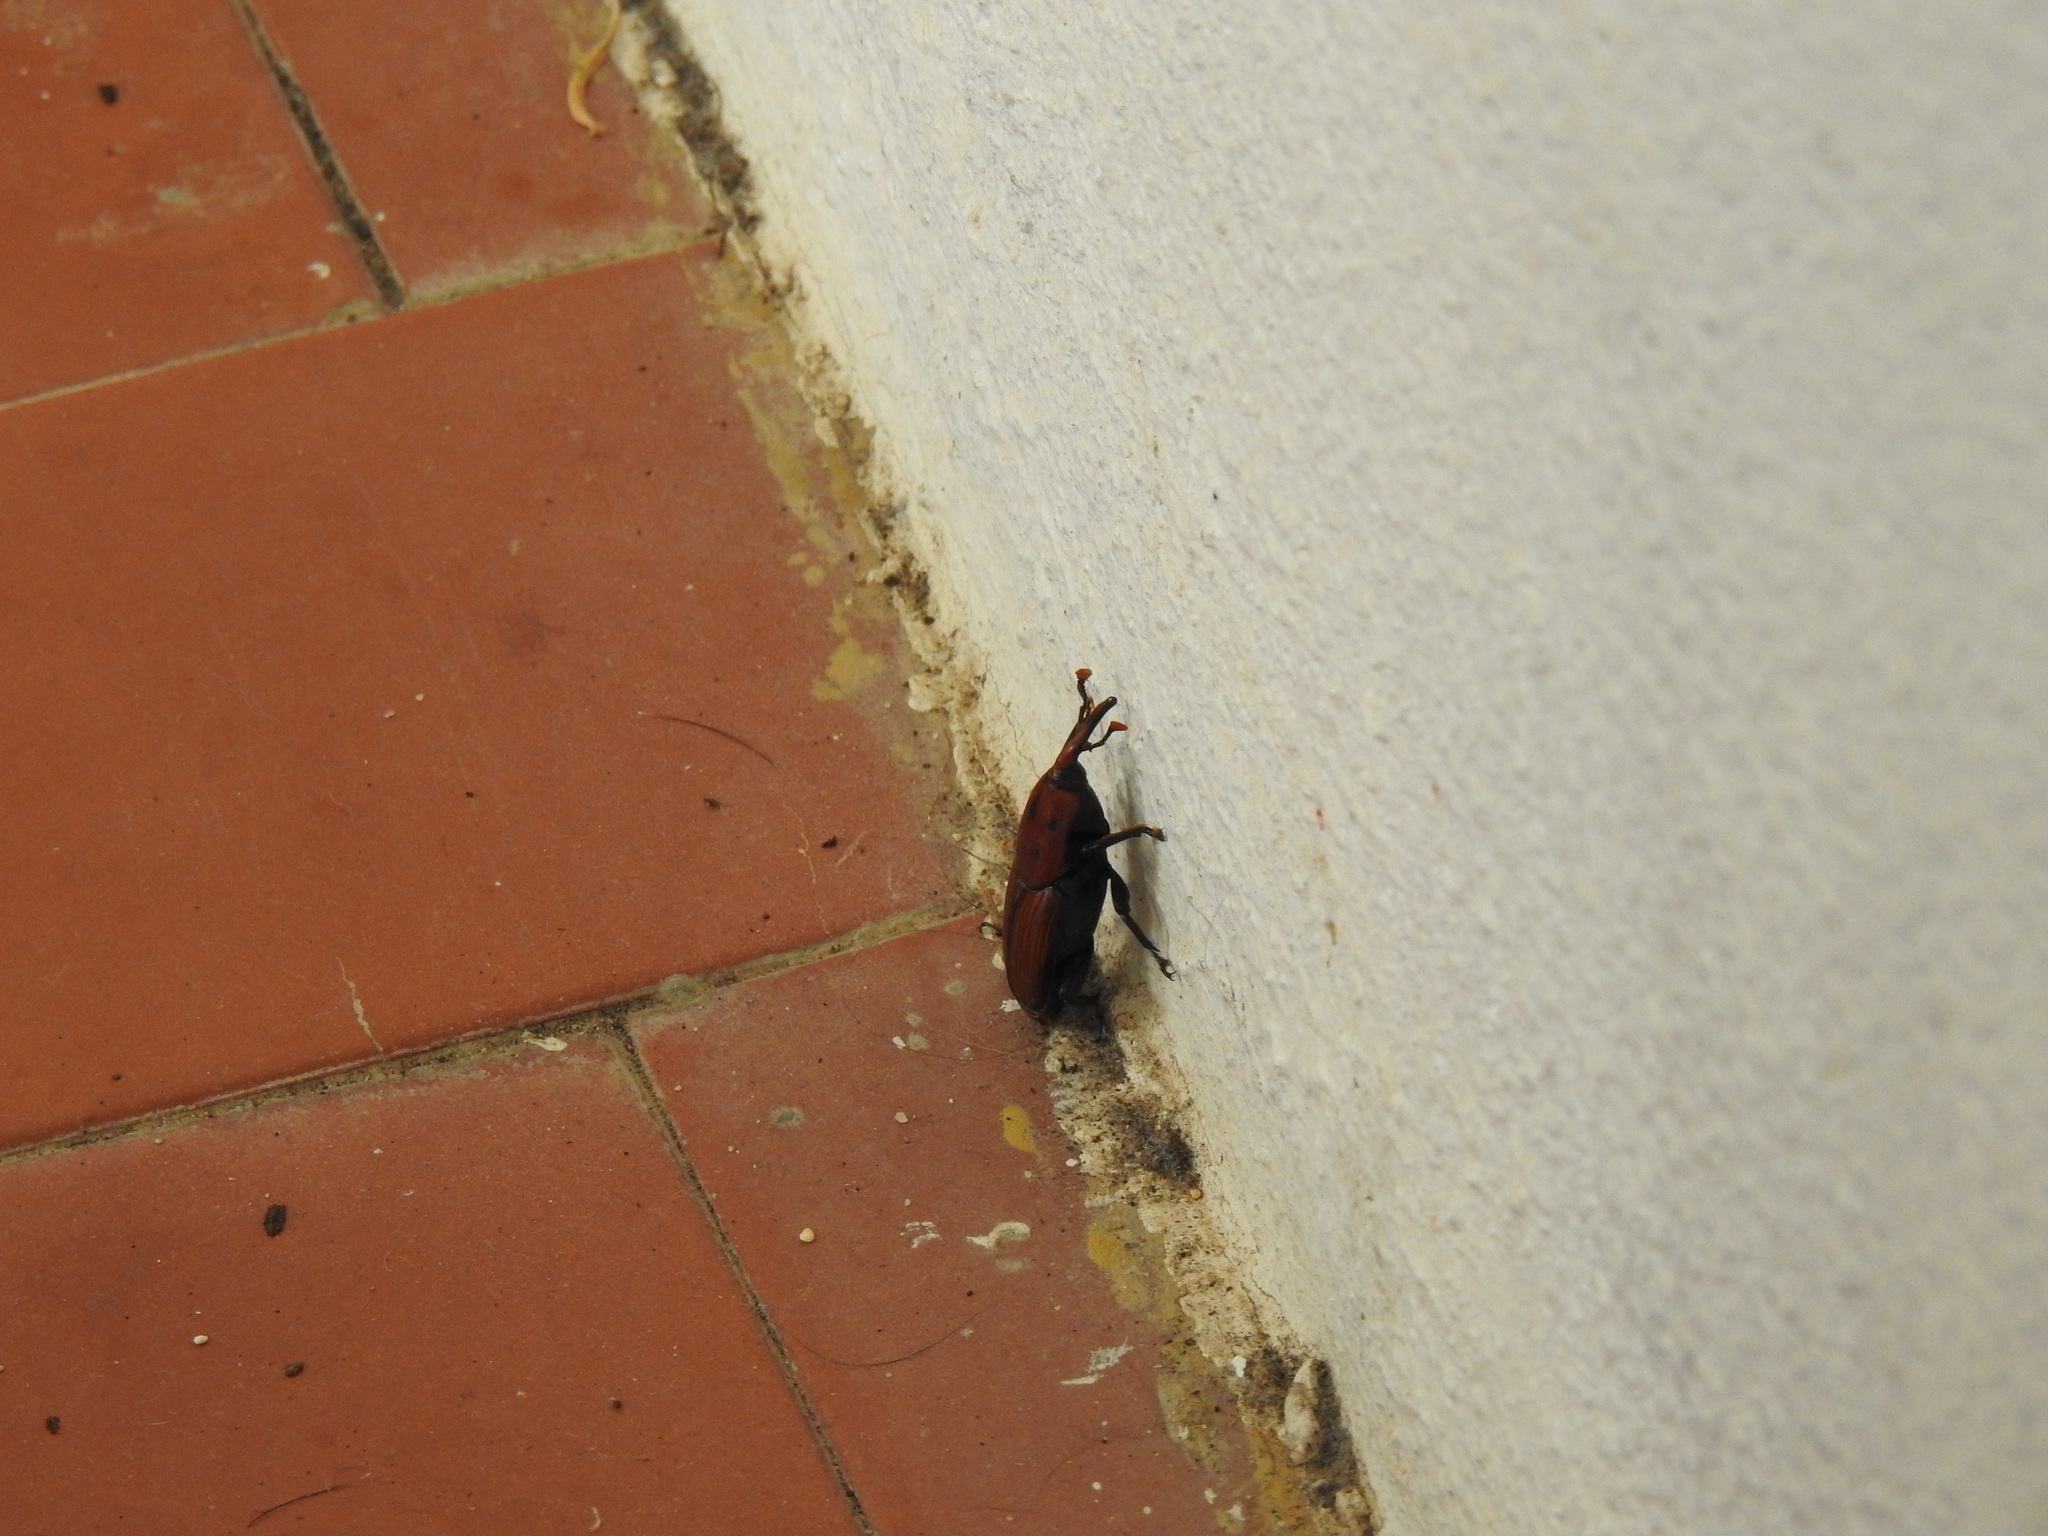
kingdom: Animalia
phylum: Arthropoda
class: Insecta
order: Coleoptera
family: Dryophthoridae
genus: Rhynchophorus
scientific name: Rhynchophorus ferrugineus
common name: Red palm weevil
